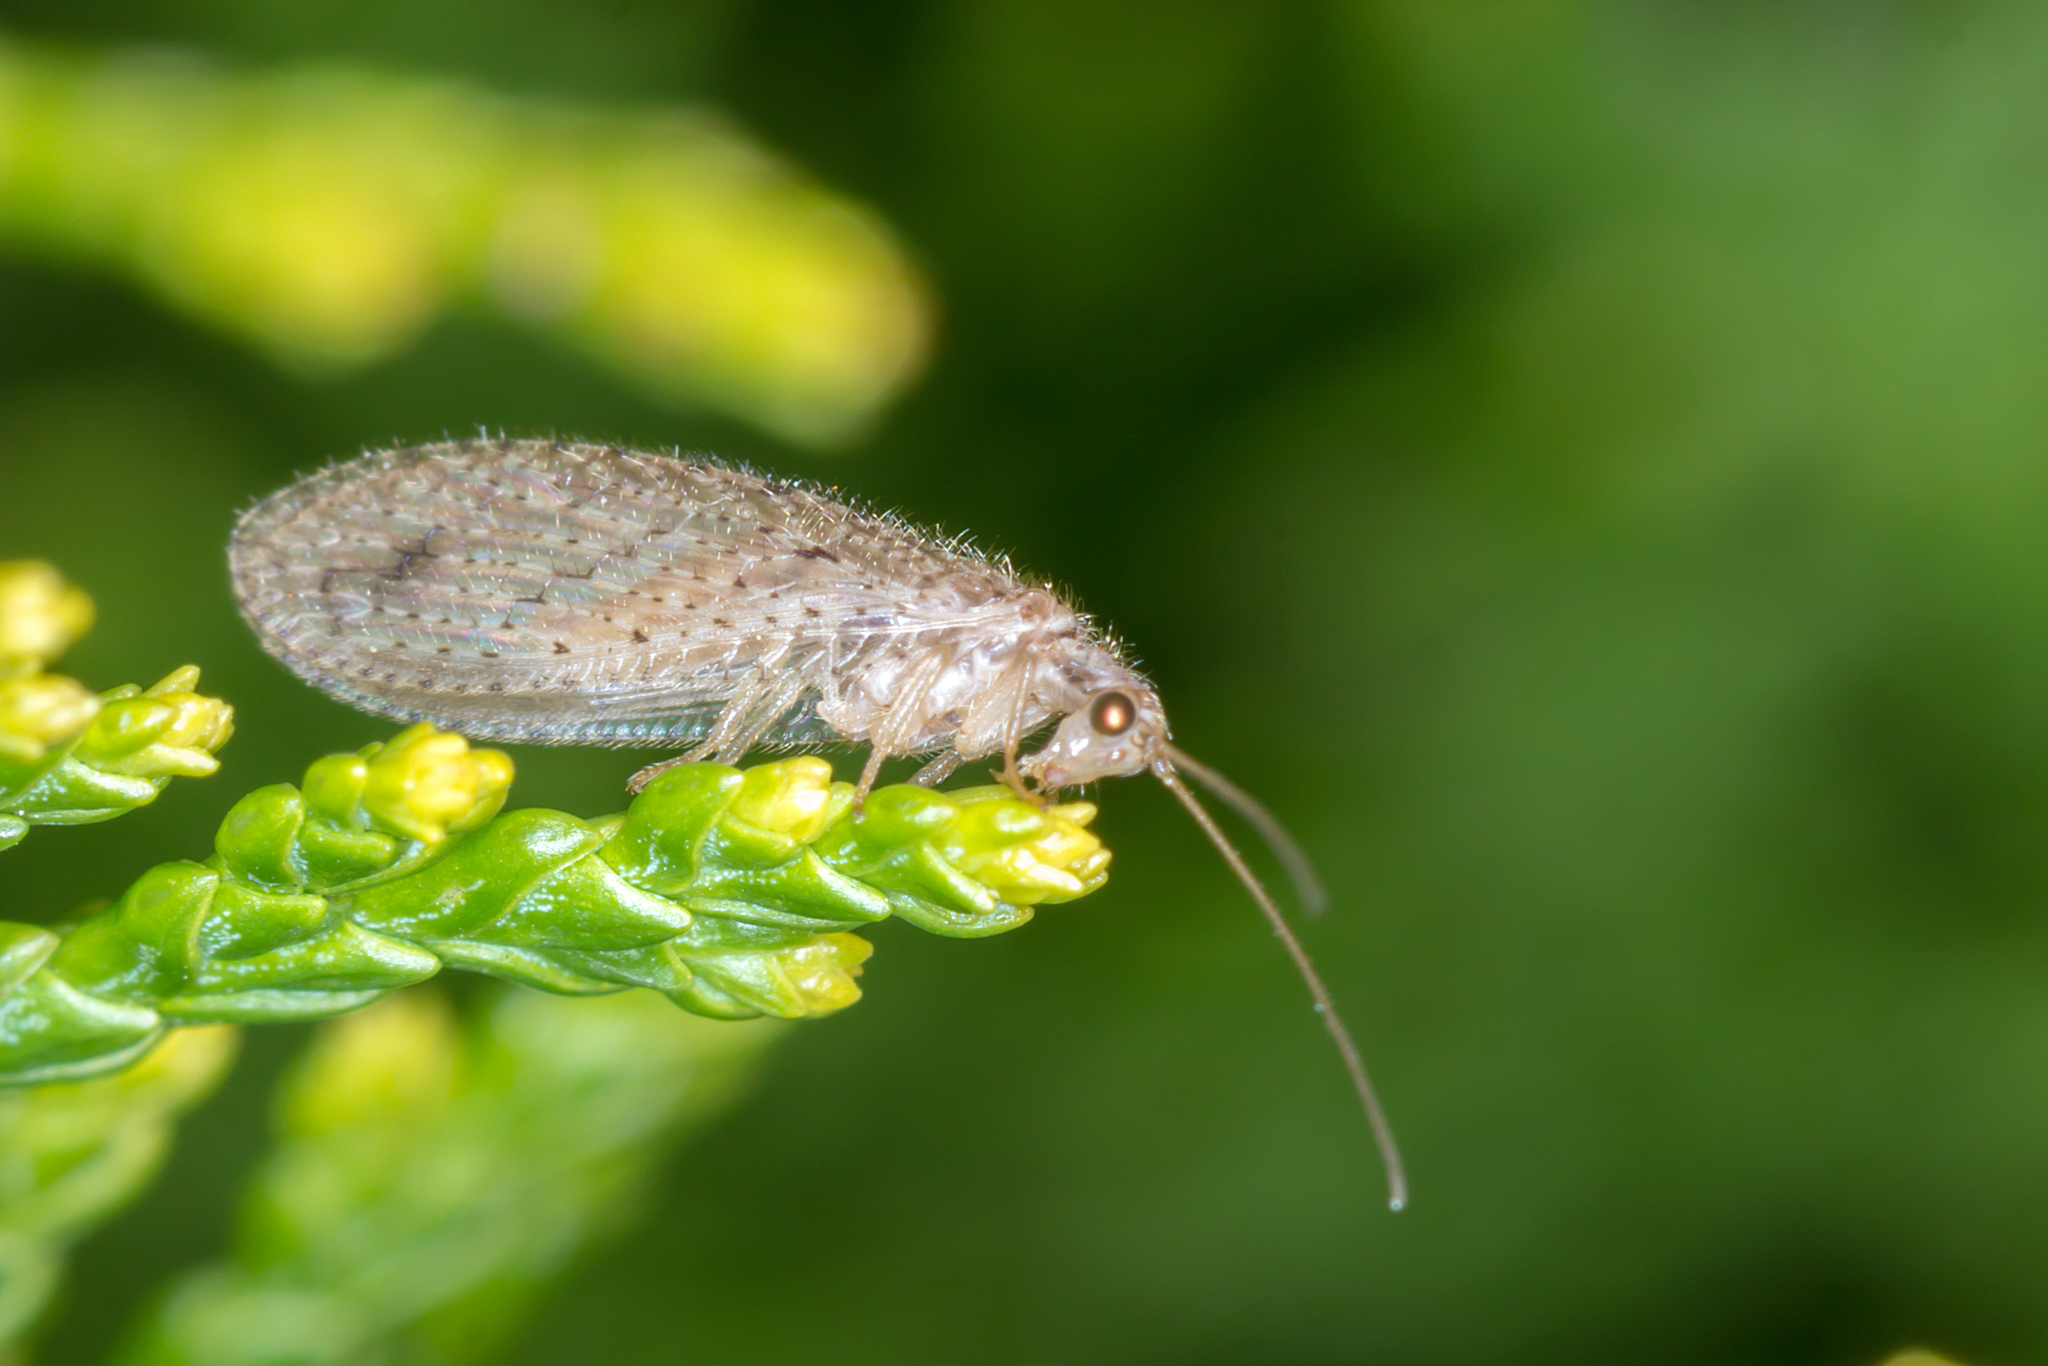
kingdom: Animalia
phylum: Arthropoda
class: Insecta
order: Neuroptera
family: Hemerobiidae
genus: Micromus
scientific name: Micromus tasmaniae
